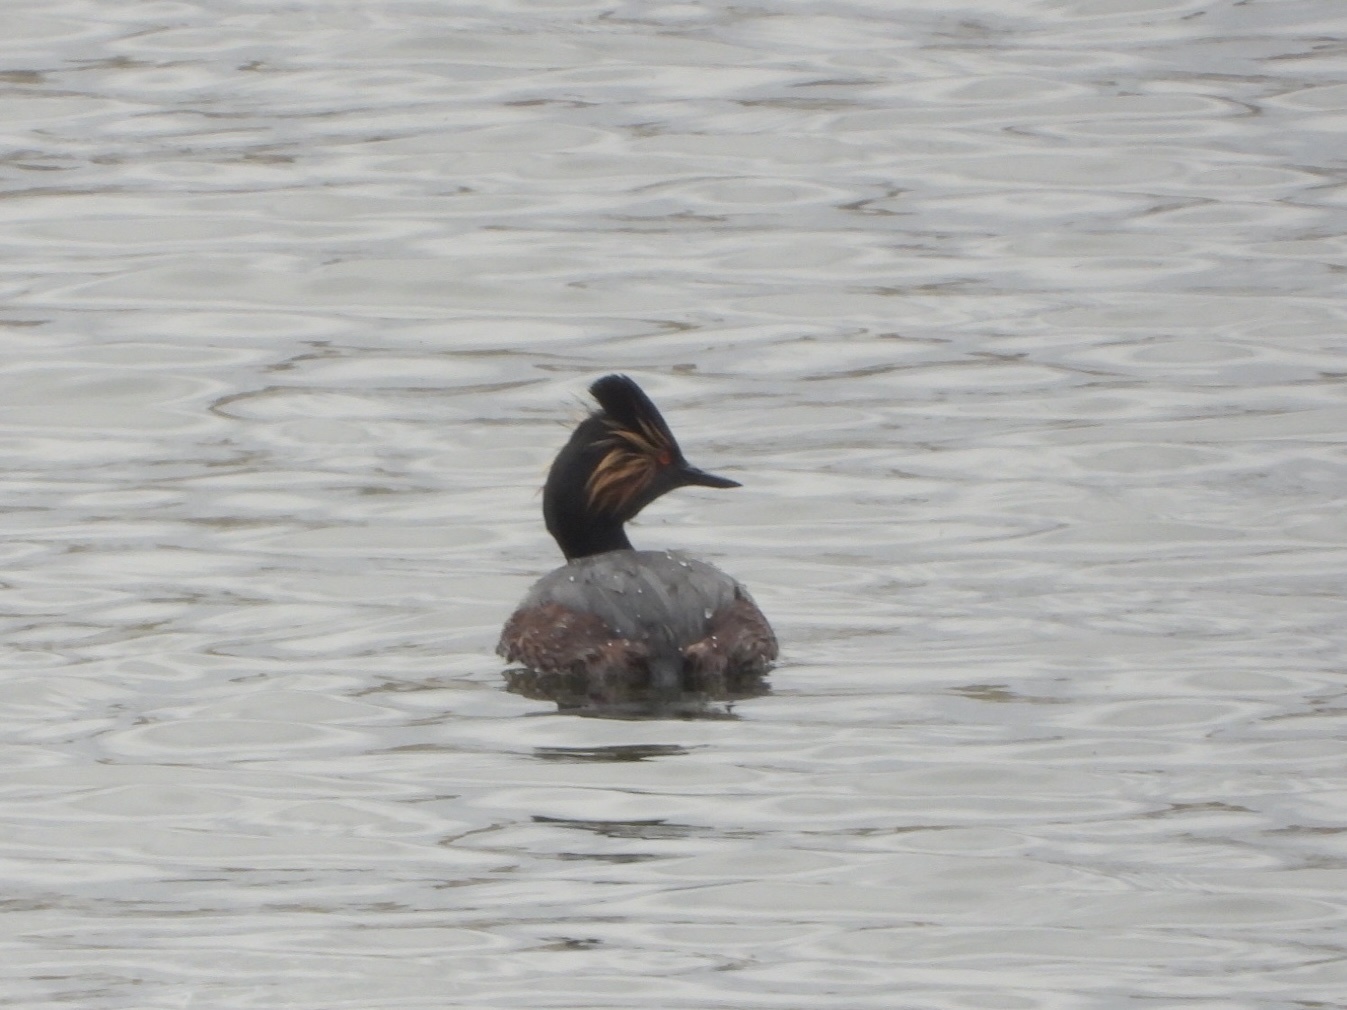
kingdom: Animalia
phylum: Chordata
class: Aves
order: Podicipediformes
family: Podicipedidae
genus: Podiceps
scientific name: Podiceps nigricollis
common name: Black-necked grebe
